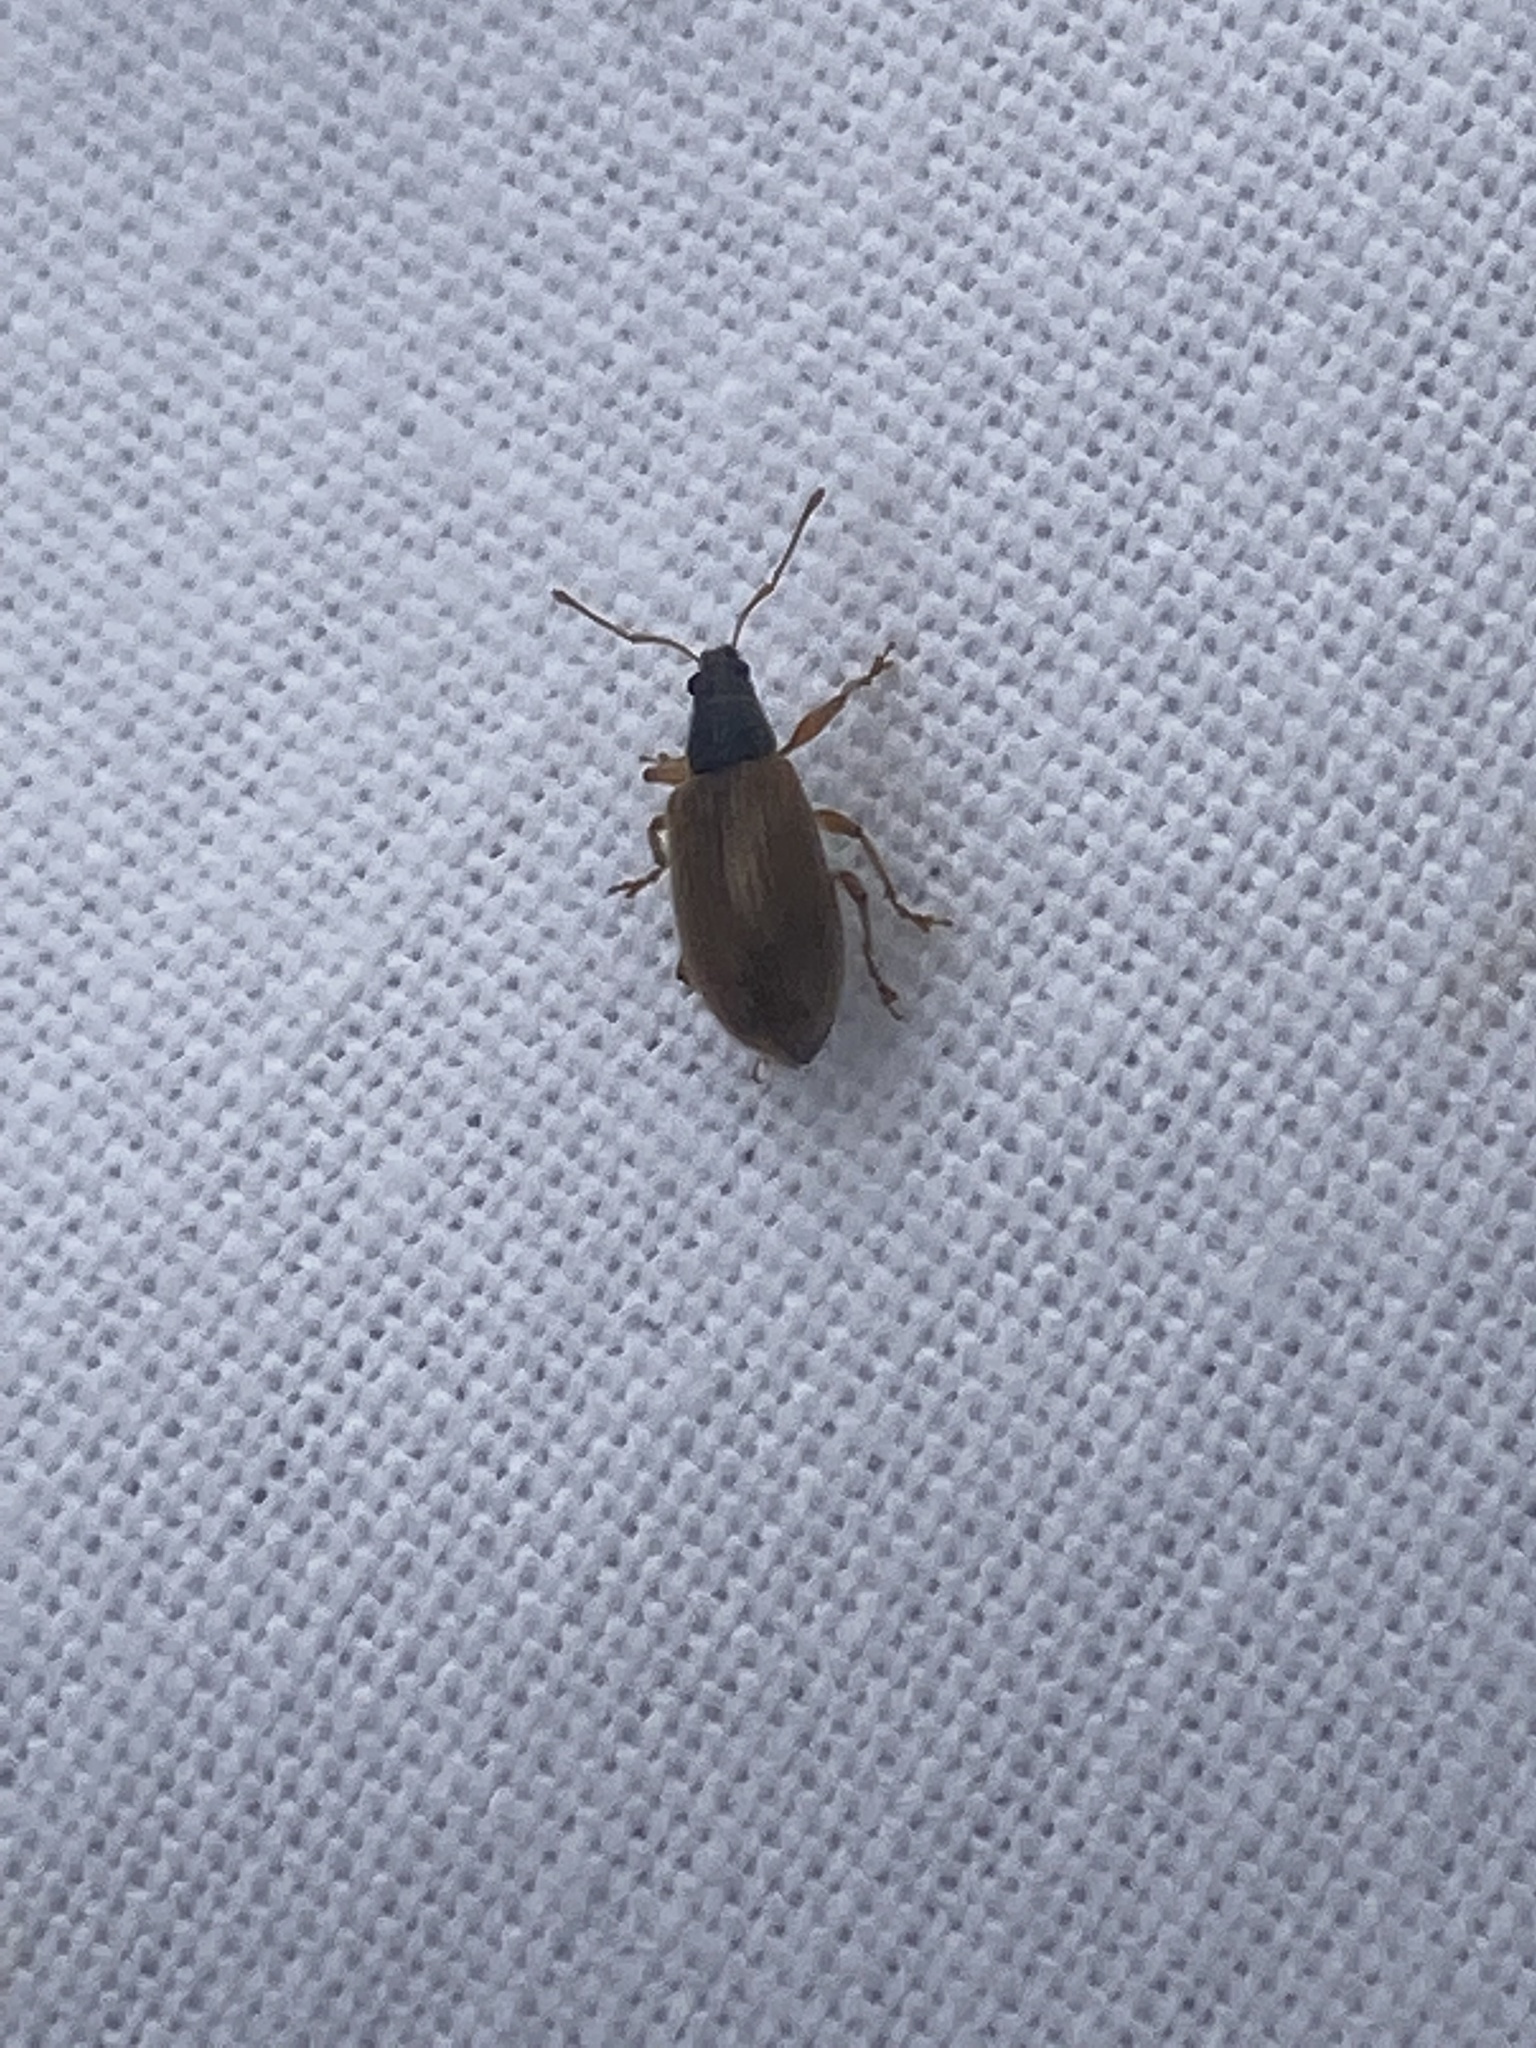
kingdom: Animalia
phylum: Arthropoda
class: Insecta
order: Coleoptera
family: Curculionidae
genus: Phyllobius
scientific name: Phyllobius oblongus
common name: Brown leaf weevil
